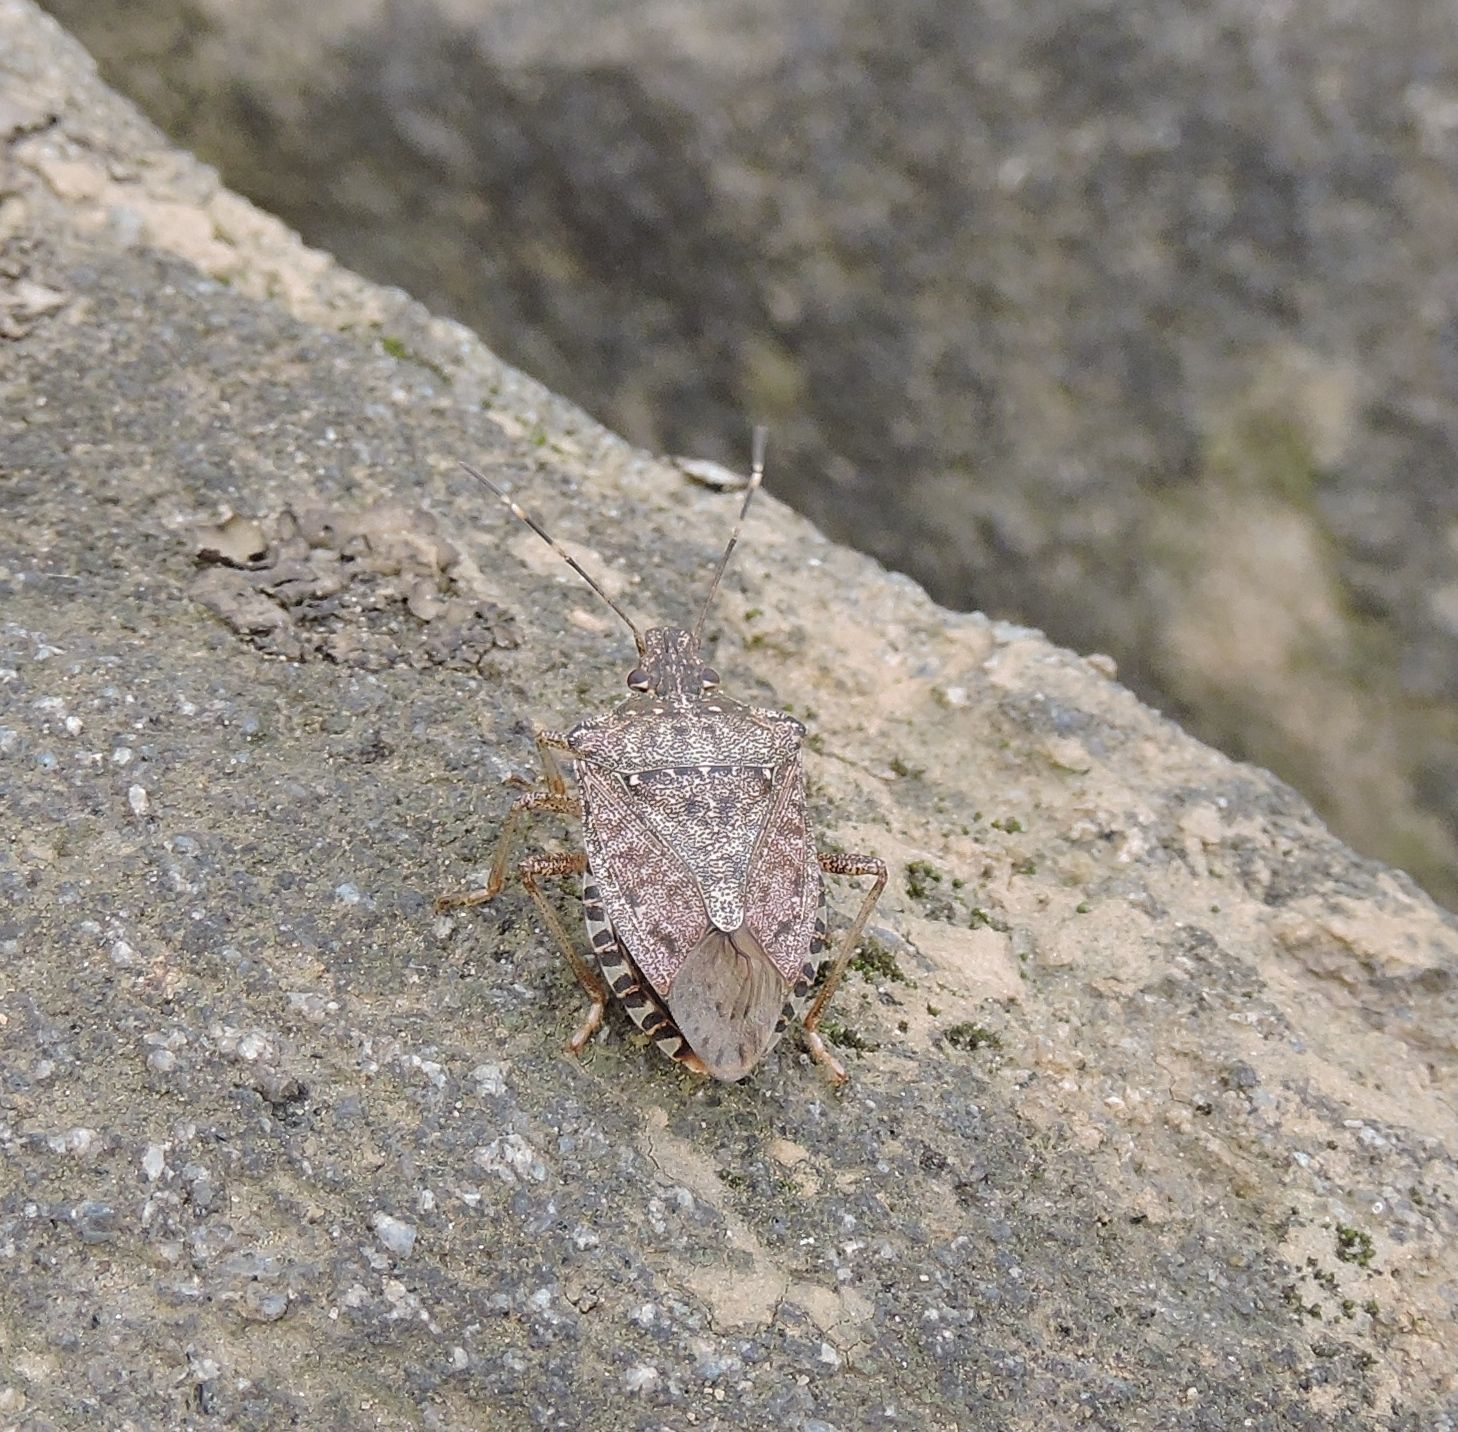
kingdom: Animalia
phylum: Arthropoda
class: Insecta
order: Hemiptera
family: Pentatomidae
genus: Halyomorpha
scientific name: Halyomorpha halys
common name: Brown marmorated stink bug
